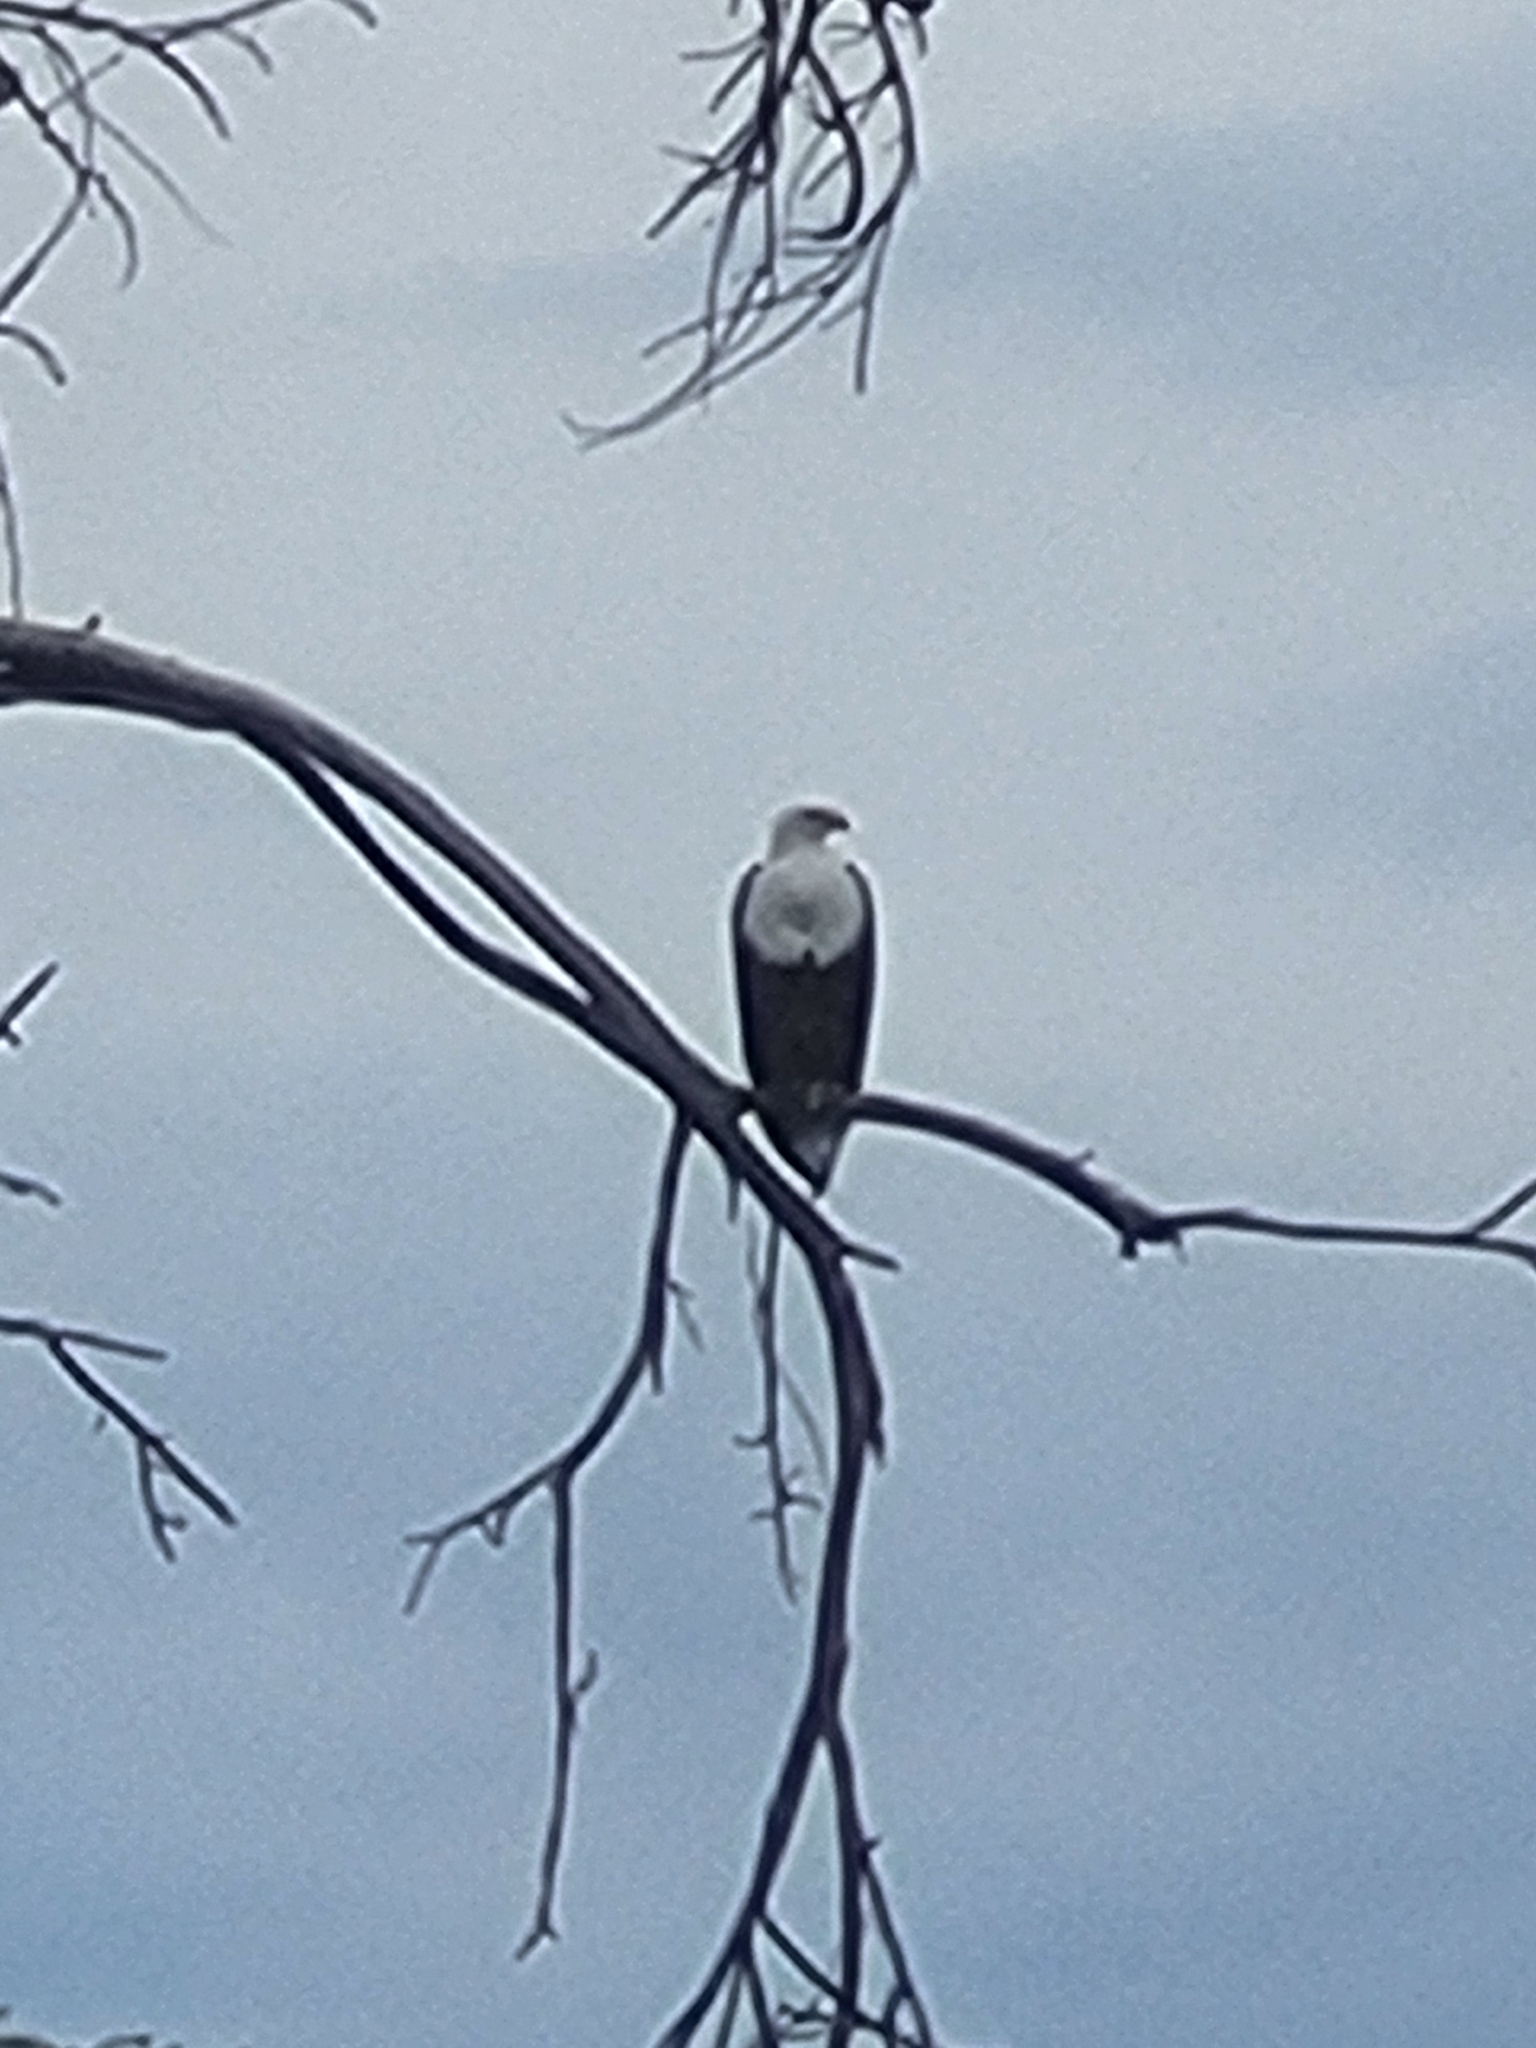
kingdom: Animalia
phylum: Chordata
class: Aves
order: Accipitriformes
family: Accipitridae
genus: Haliaeetus
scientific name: Haliaeetus vocifer
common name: African fish eagle
